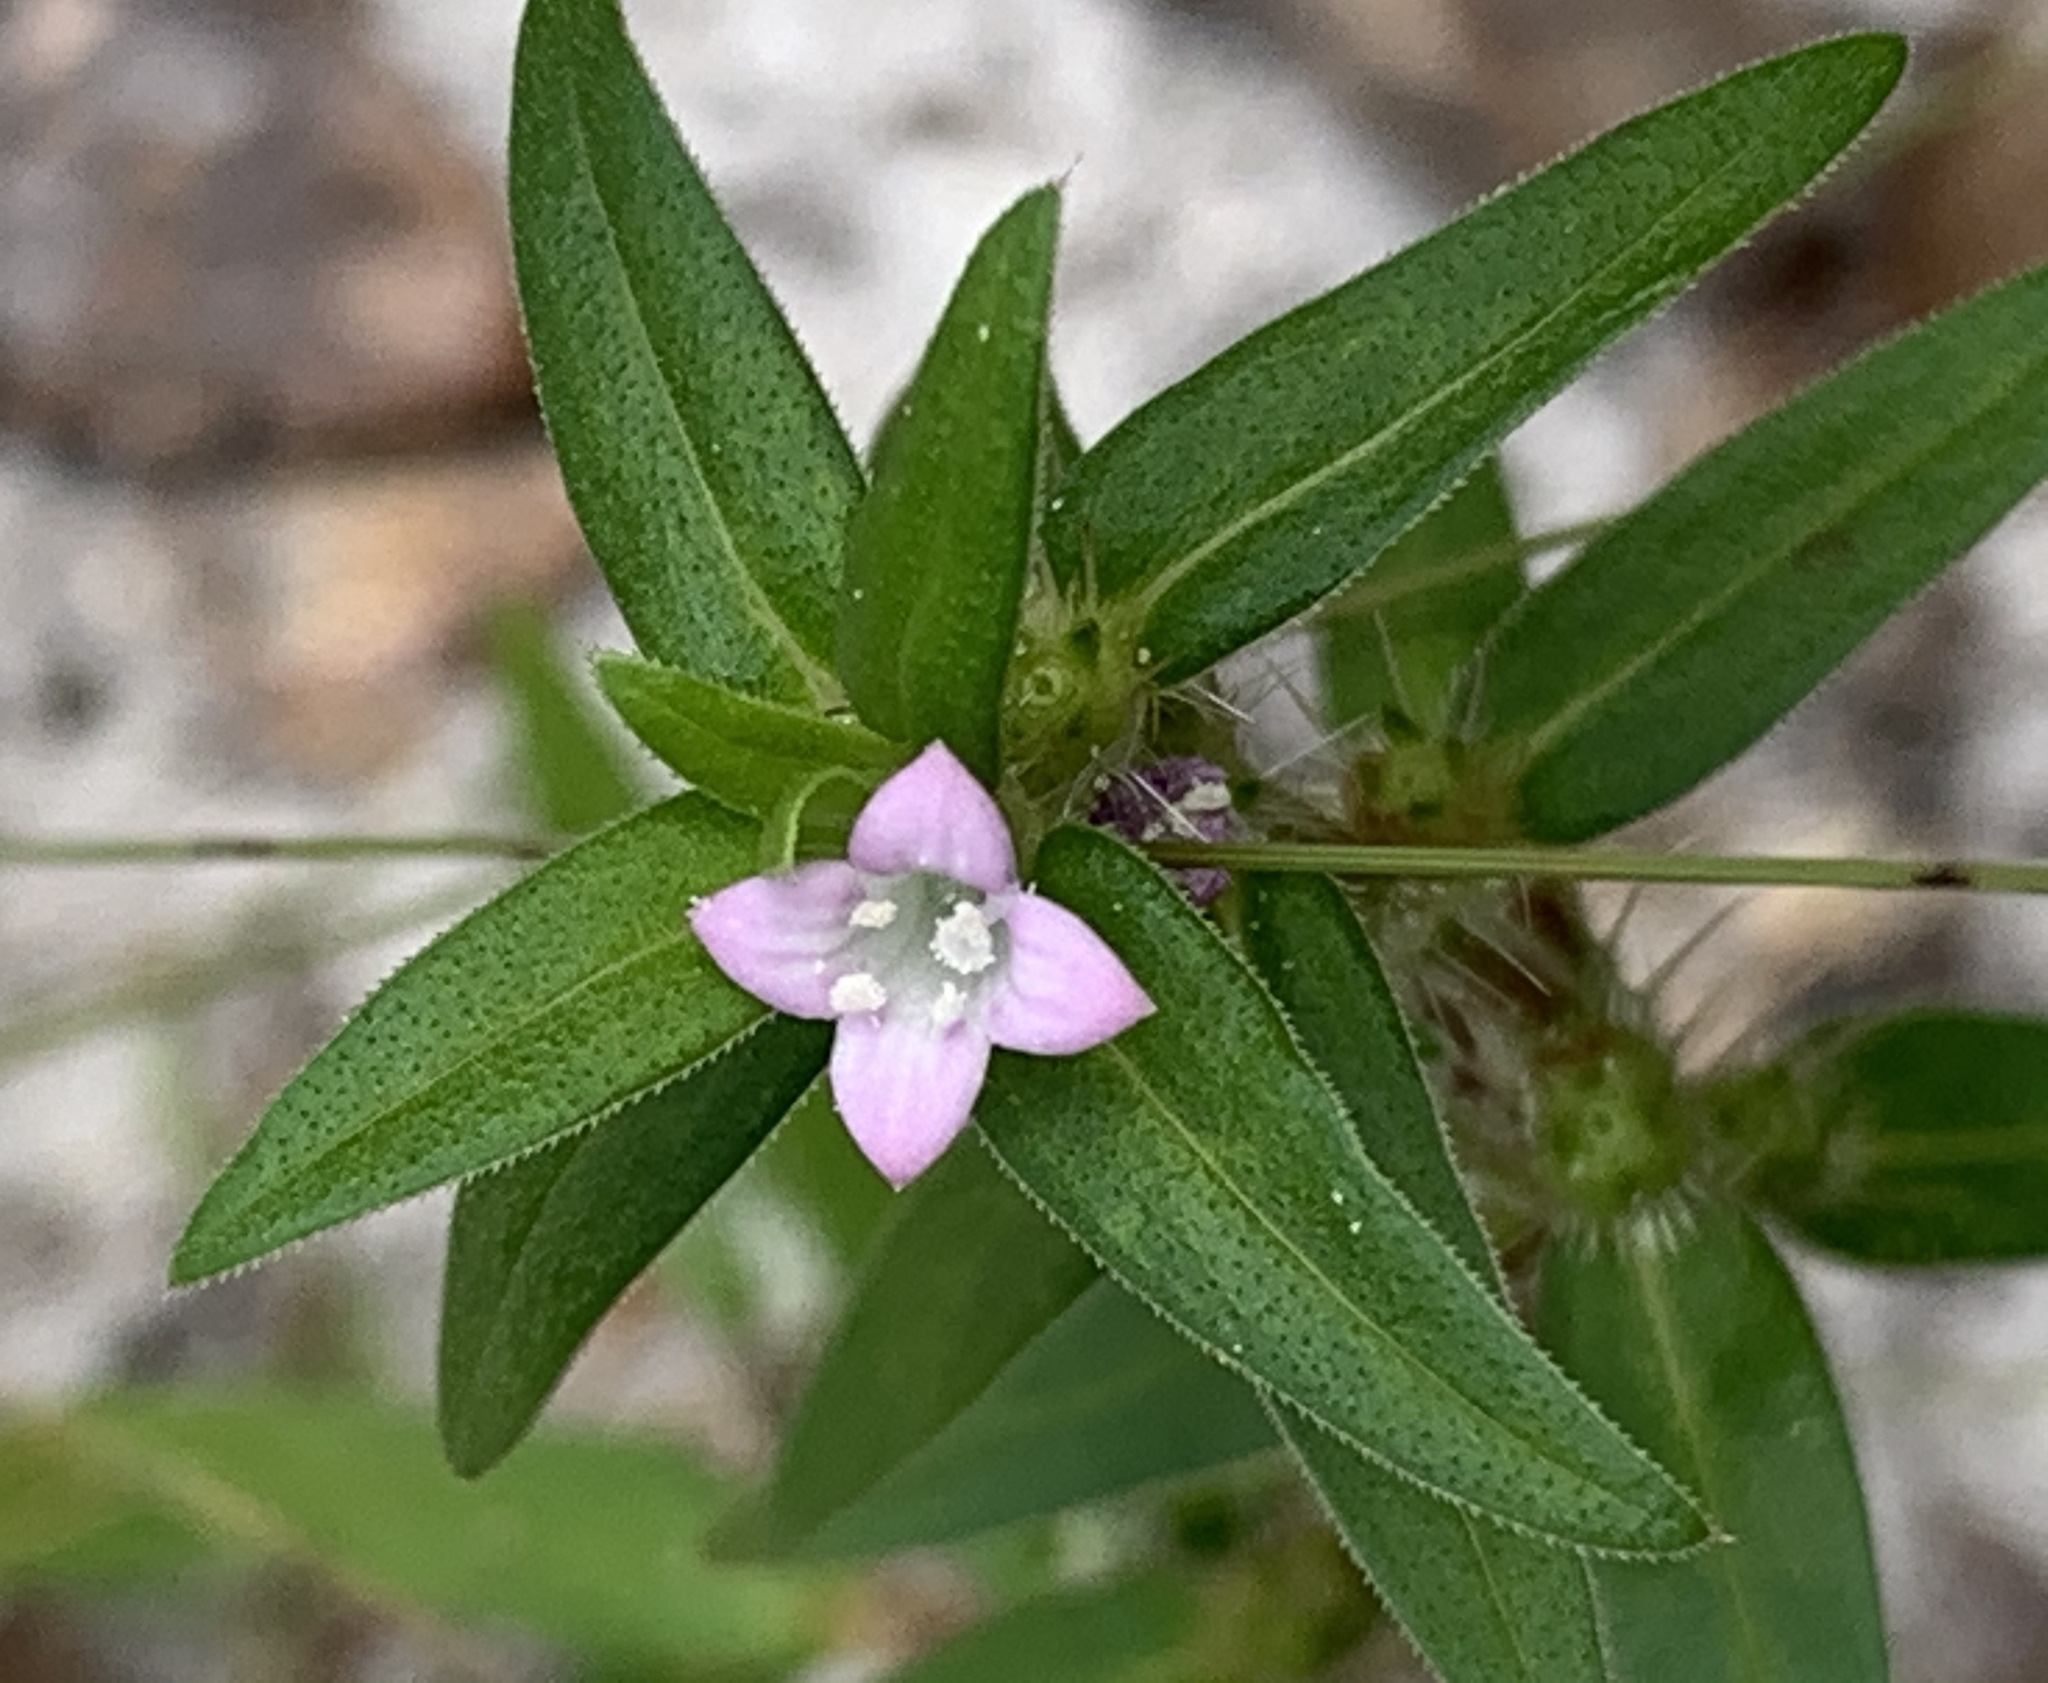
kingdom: Plantae
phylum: Tracheophyta
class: Magnoliopsida
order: Gentianales
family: Rubiaceae
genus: Hexasepalum
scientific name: Hexasepalum teres
